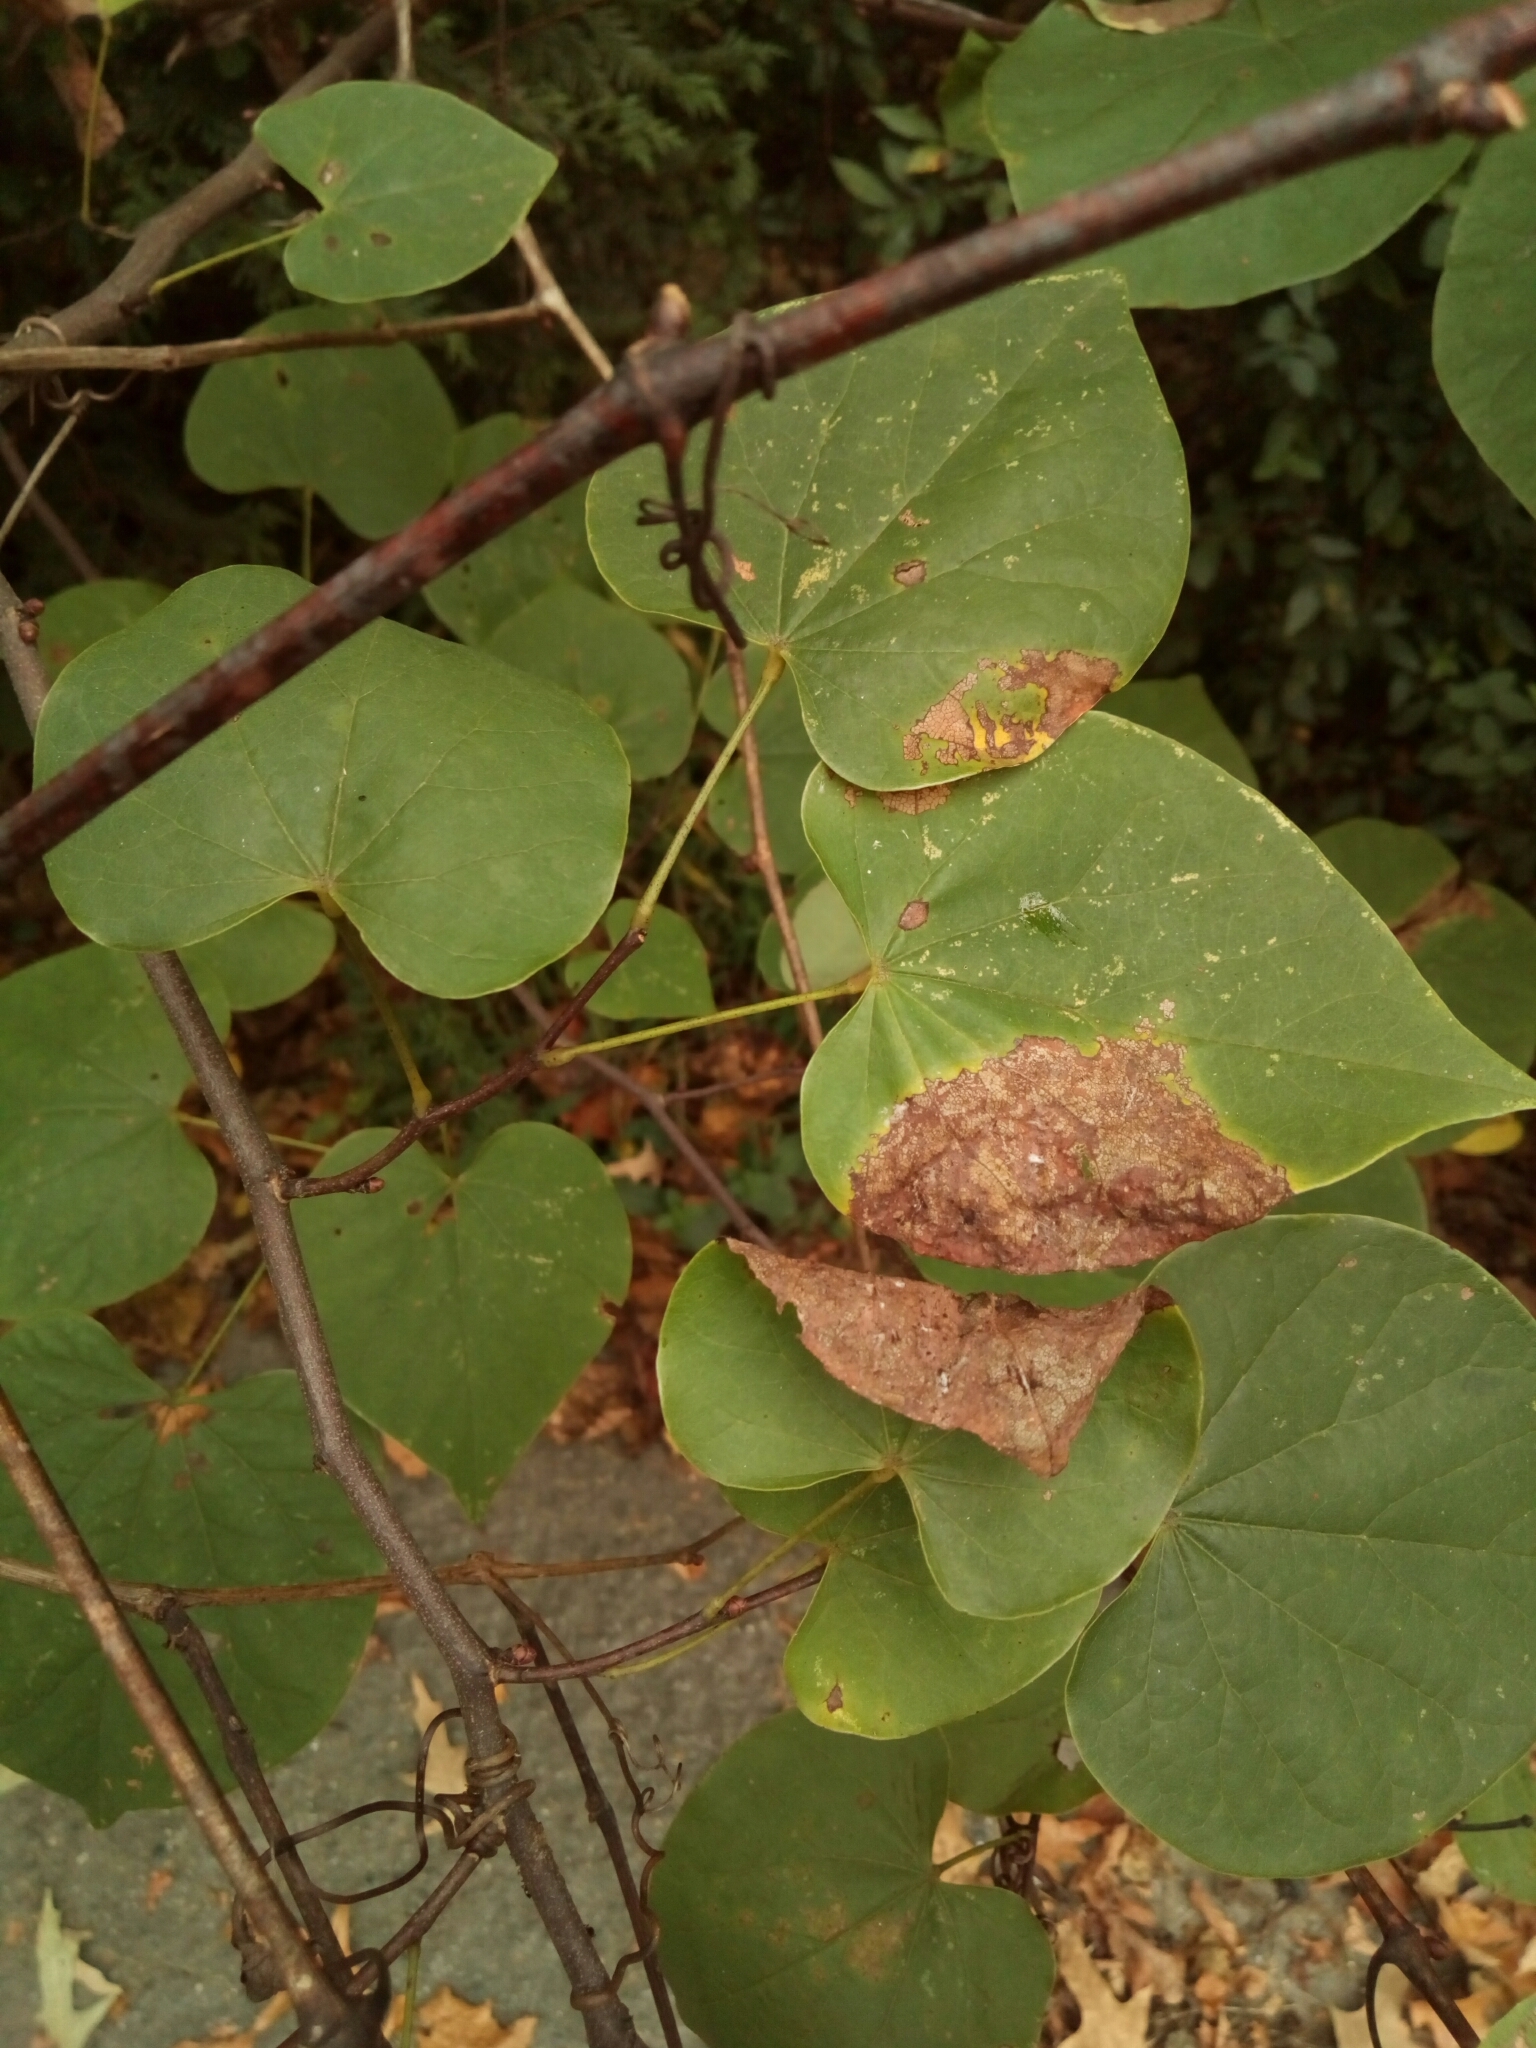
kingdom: Plantae
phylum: Tracheophyta
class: Magnoliopsida
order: Fabales
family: Fabaceae
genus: Cercis
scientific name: Cercis canadensis
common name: Eastern redbud
